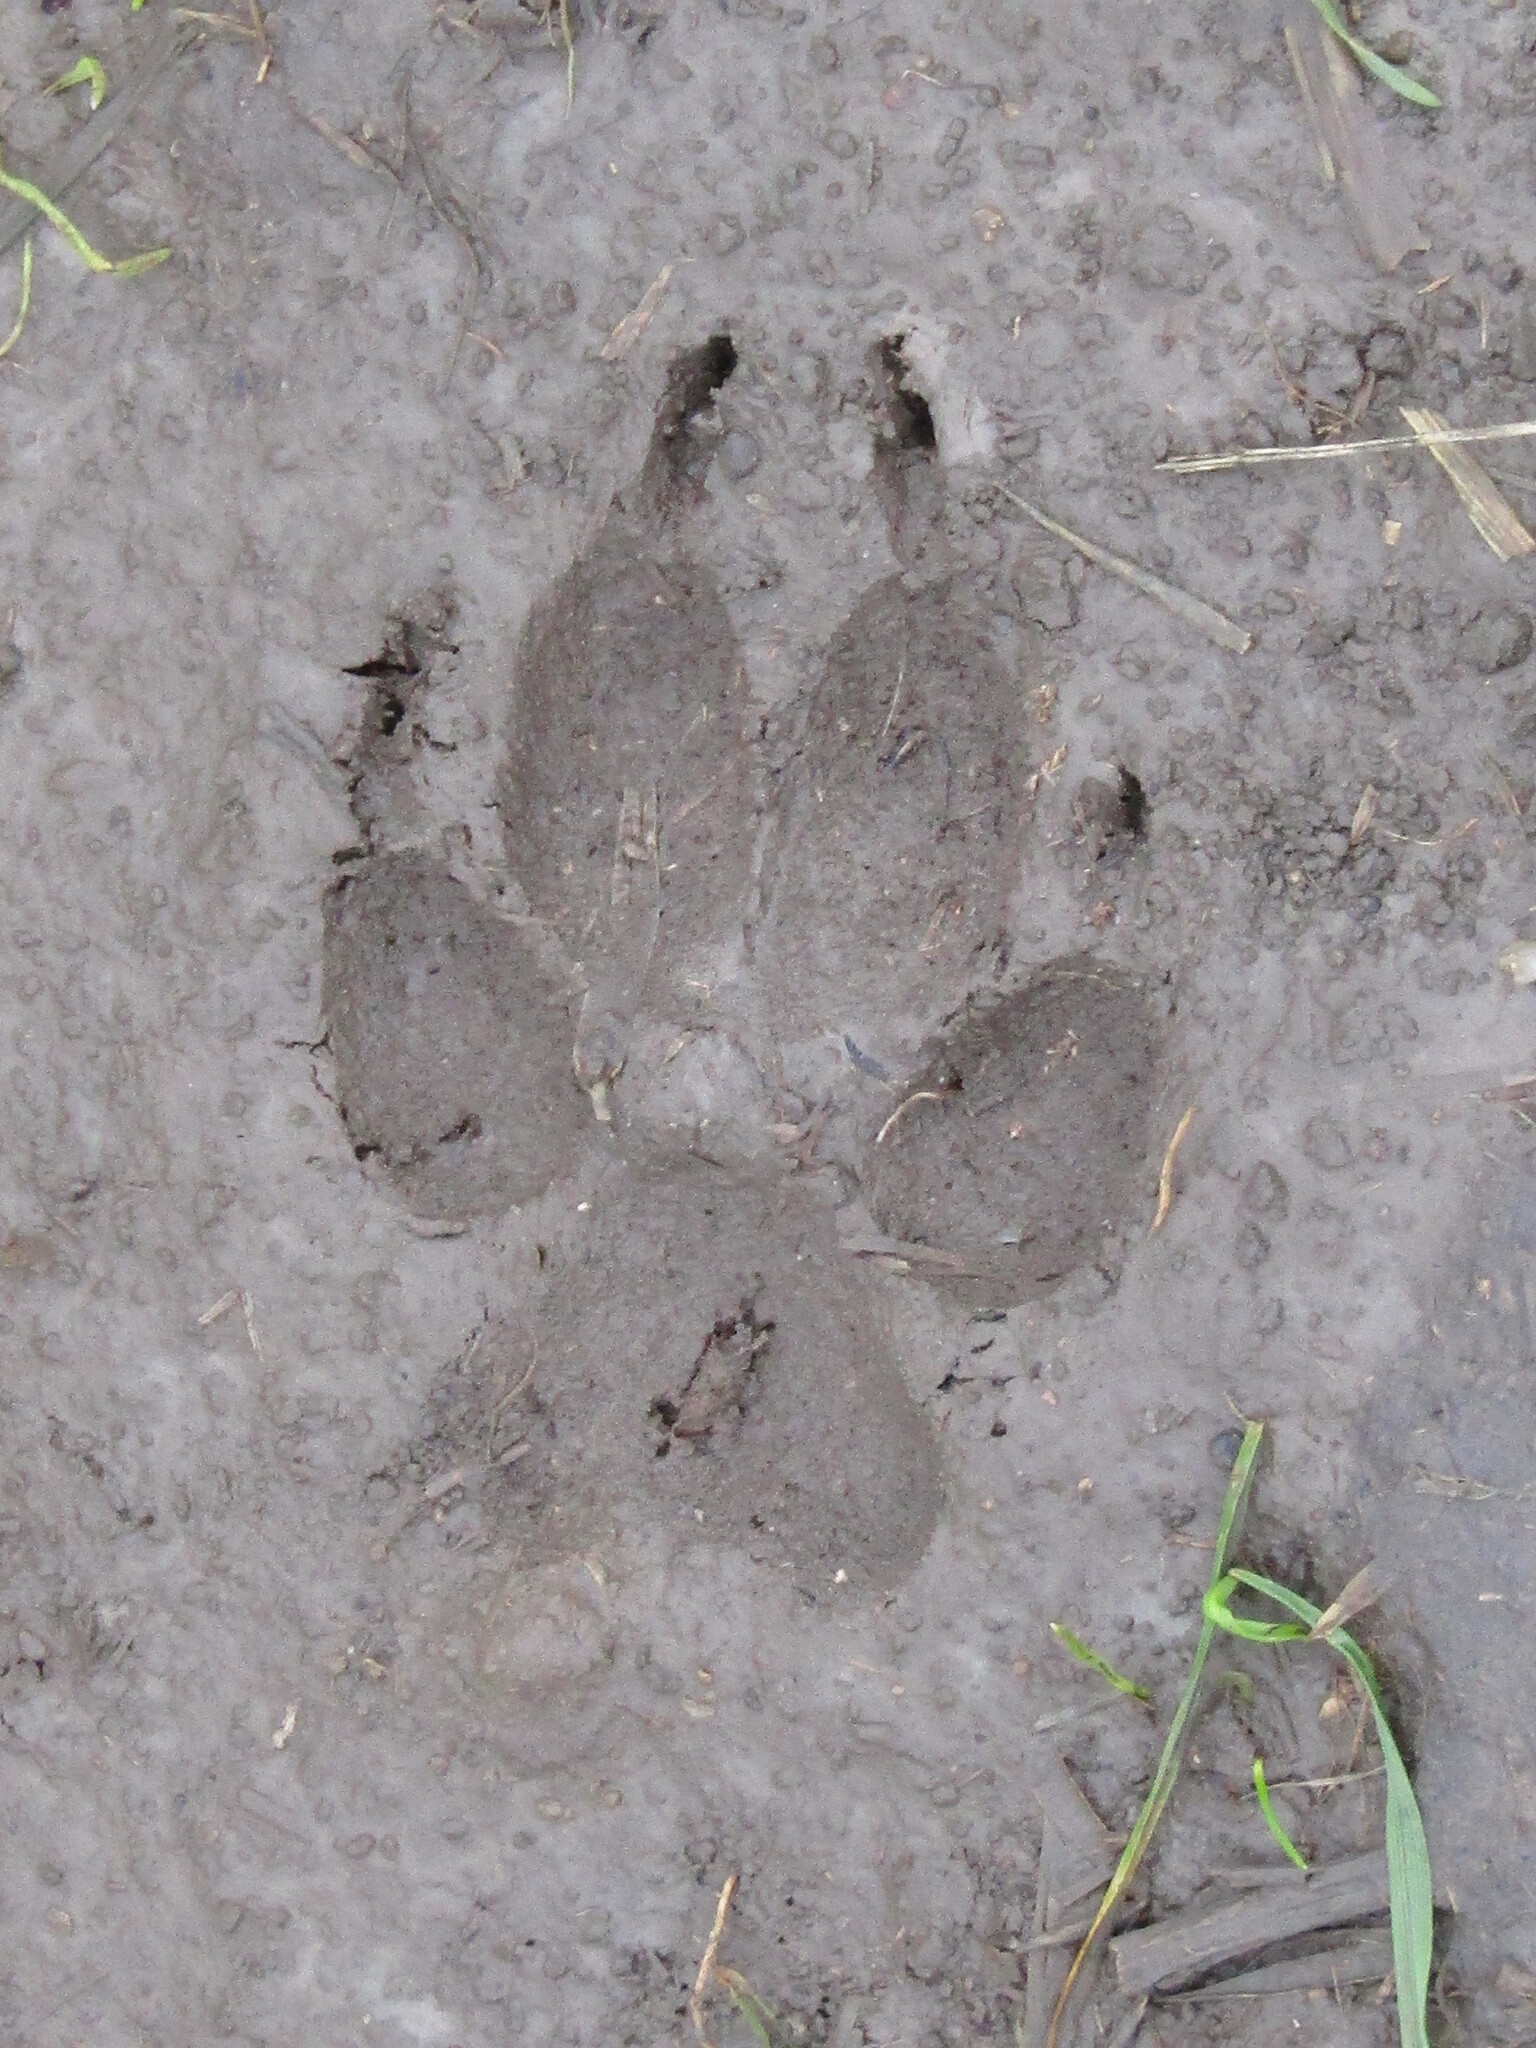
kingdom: Animalia
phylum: Chordata
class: Mammalia
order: Carnivora
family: Canidae
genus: Canis
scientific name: Canis aureus
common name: Golden jackal
